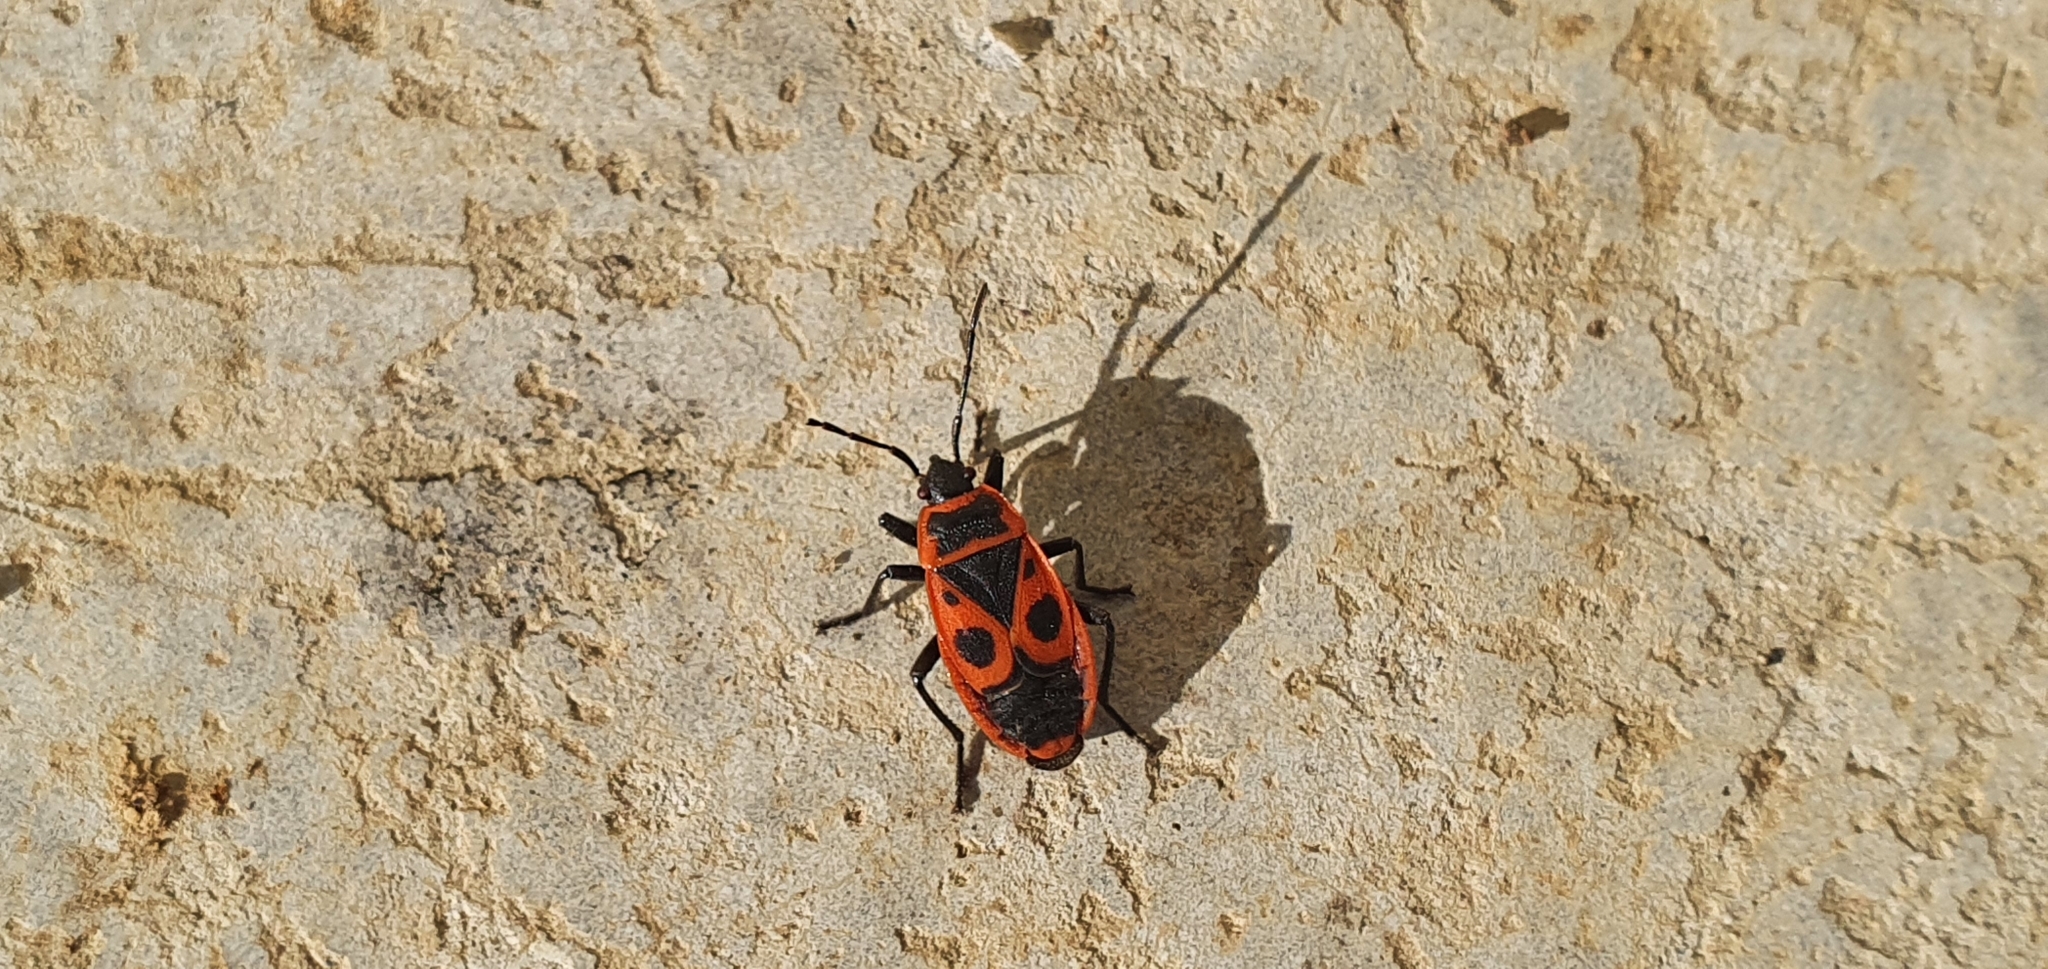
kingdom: Animalia
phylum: Arthropoda
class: Insecta
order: Hemiptera
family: Pyrrhocoridae
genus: Pyrrhocoris
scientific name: Pyrrhocoris apterus
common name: Firebug
